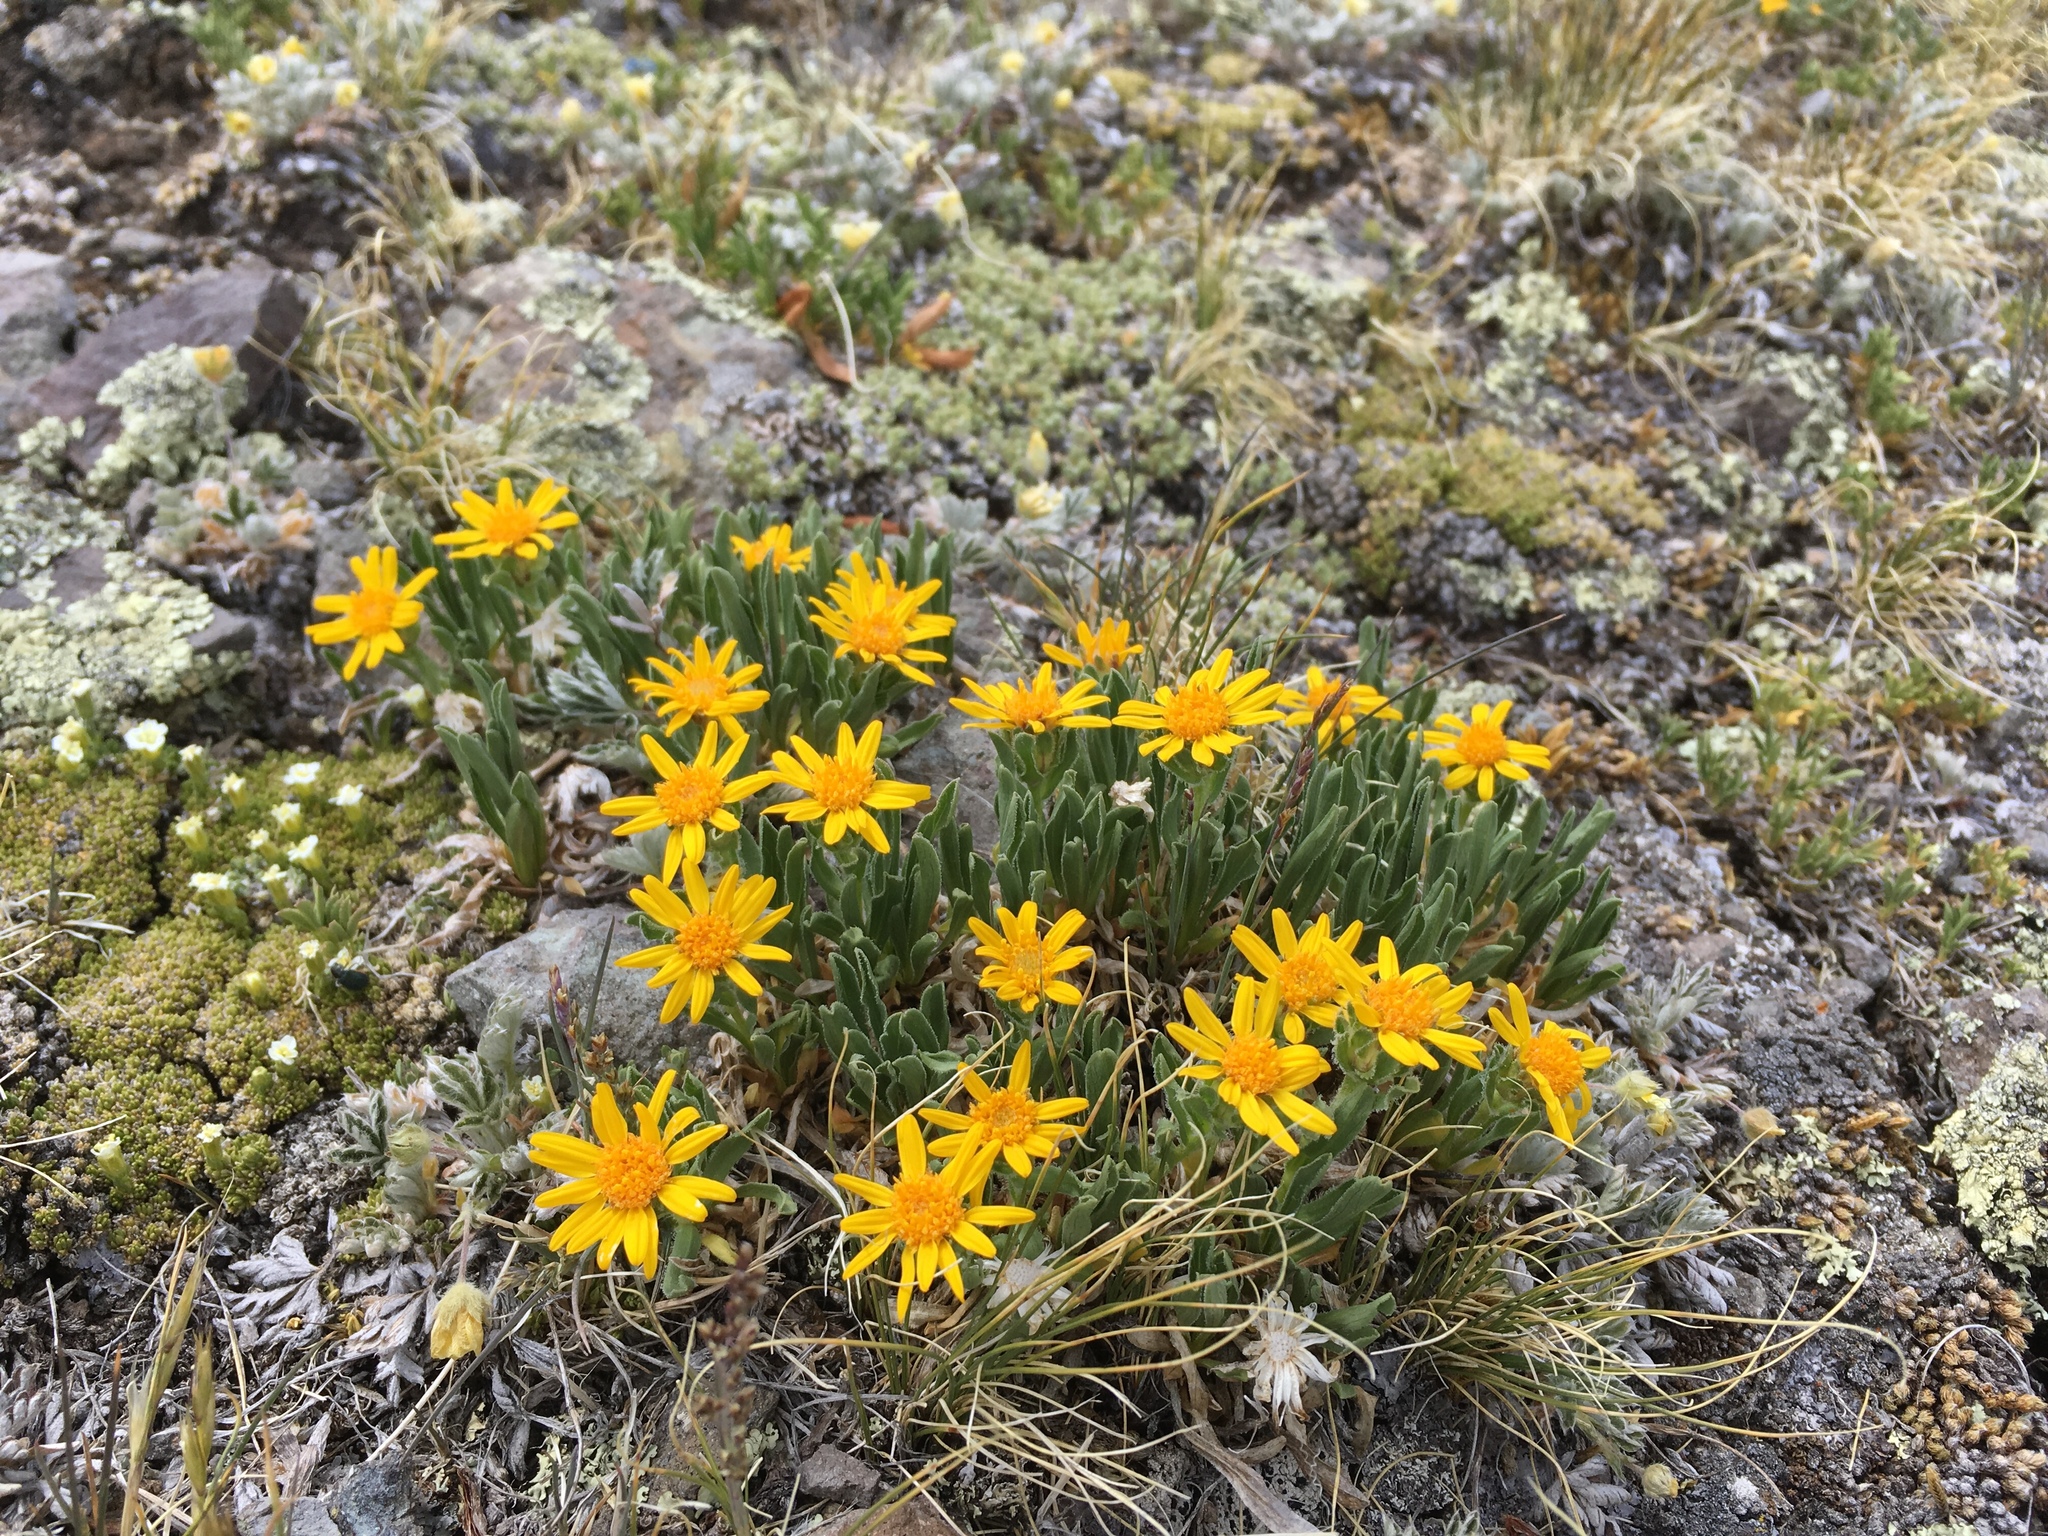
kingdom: Plantae
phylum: Tracheophyta
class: Magnoliopsida
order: Asterales
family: Asteraceae
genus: Tonestus
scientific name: Tonestus pygmaeus
